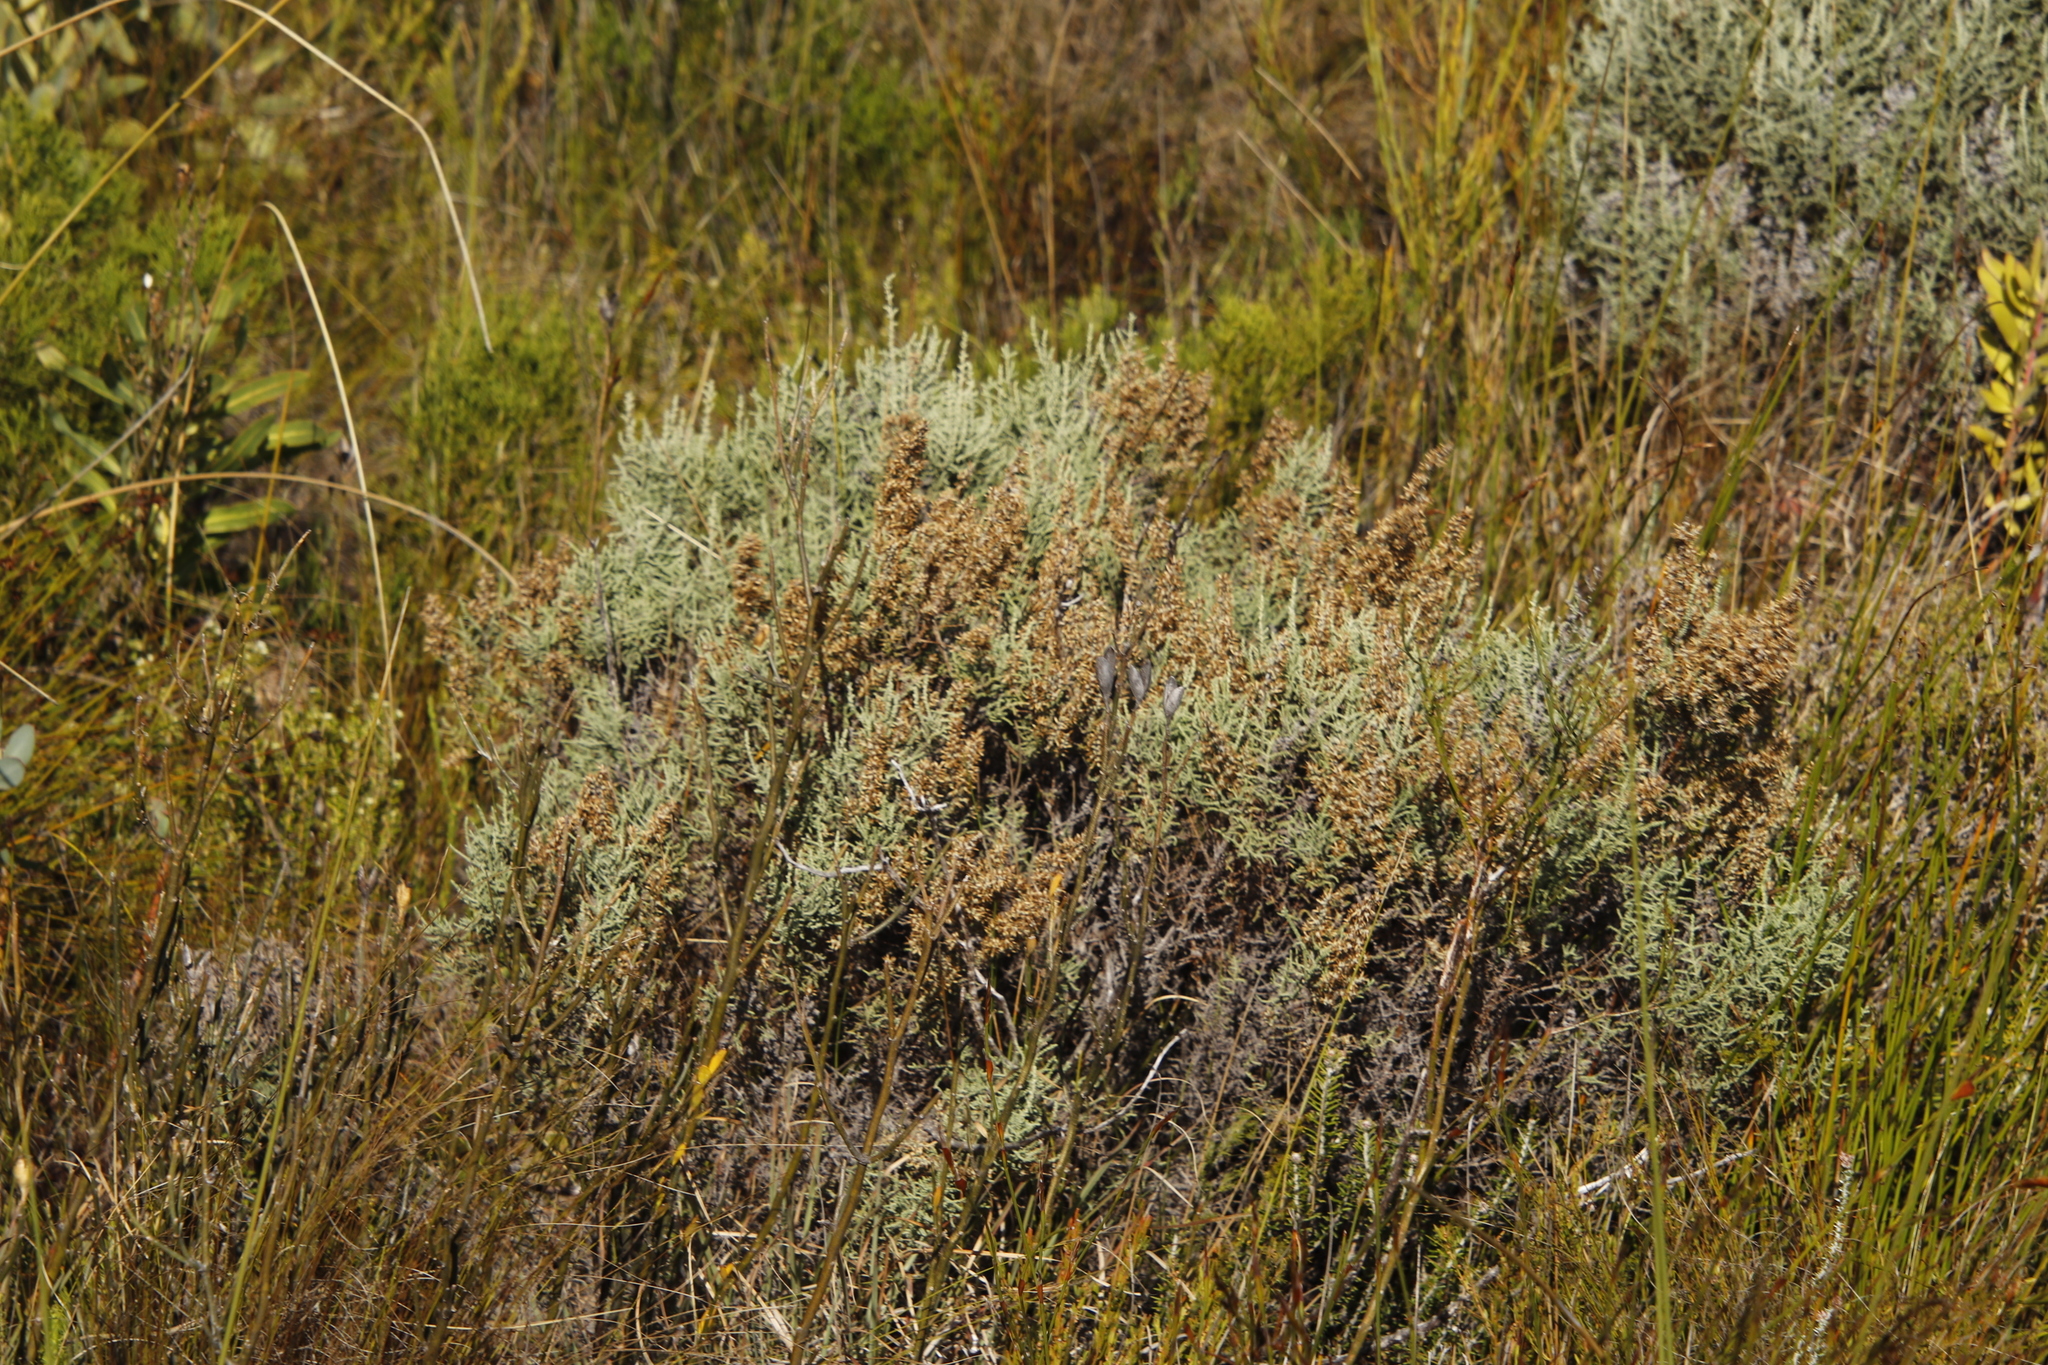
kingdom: Plantae
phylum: Tracheophyta
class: Magnoliopsida
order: Asterales
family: Asteraceae
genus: Seriphium
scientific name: Seriphium plumosum
